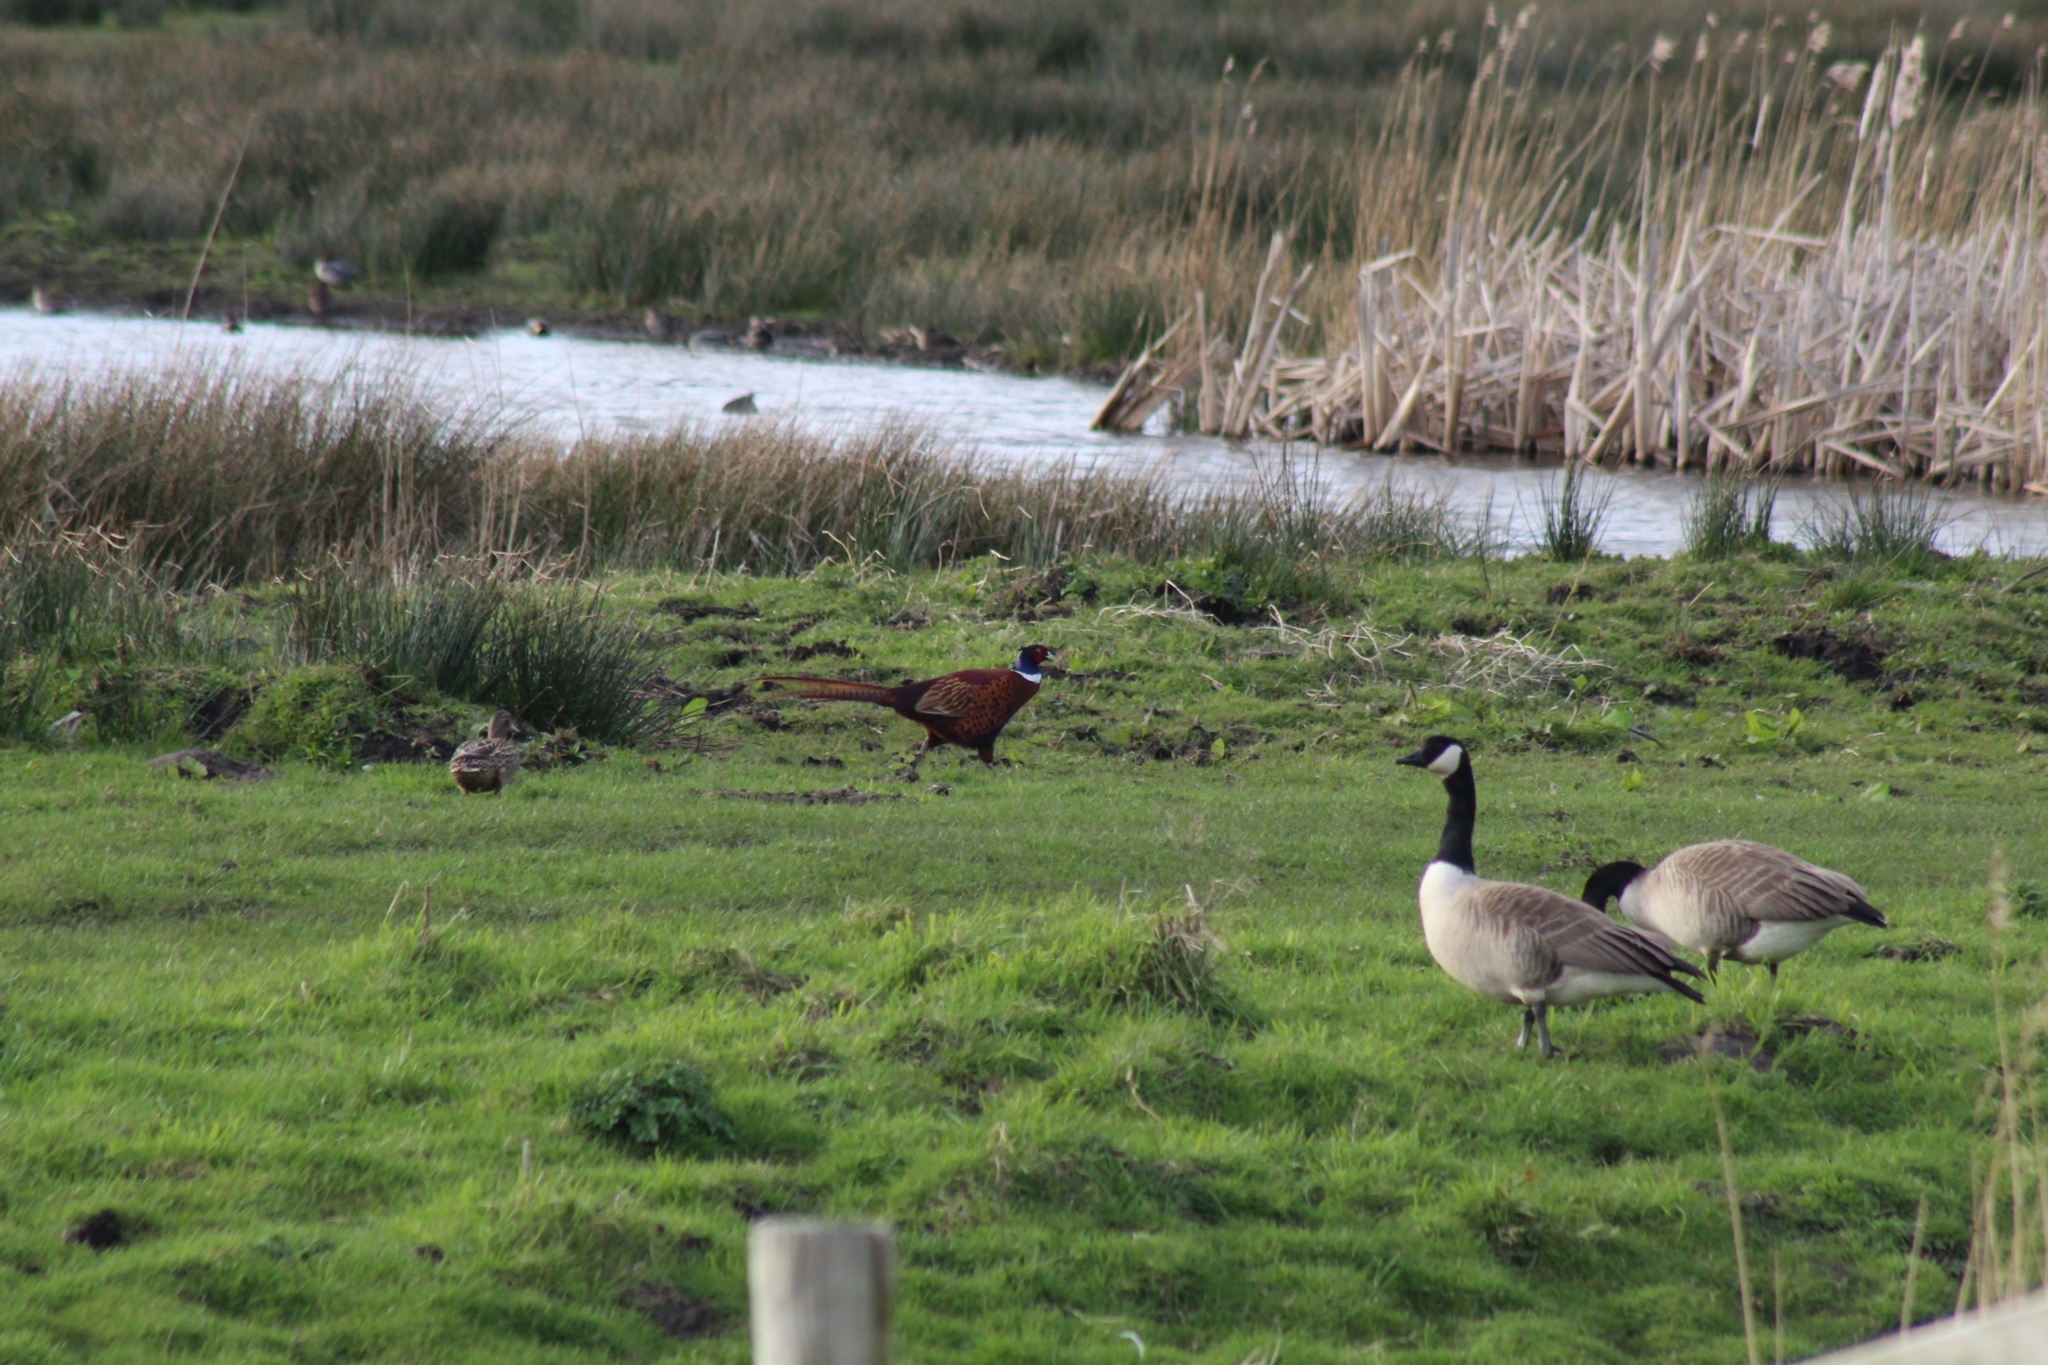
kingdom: Animalia
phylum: Chordata
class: Aves
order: Galliformes
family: Phasianidae
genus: Phasianus
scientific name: Phasianus colchicus
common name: Common pheasant
